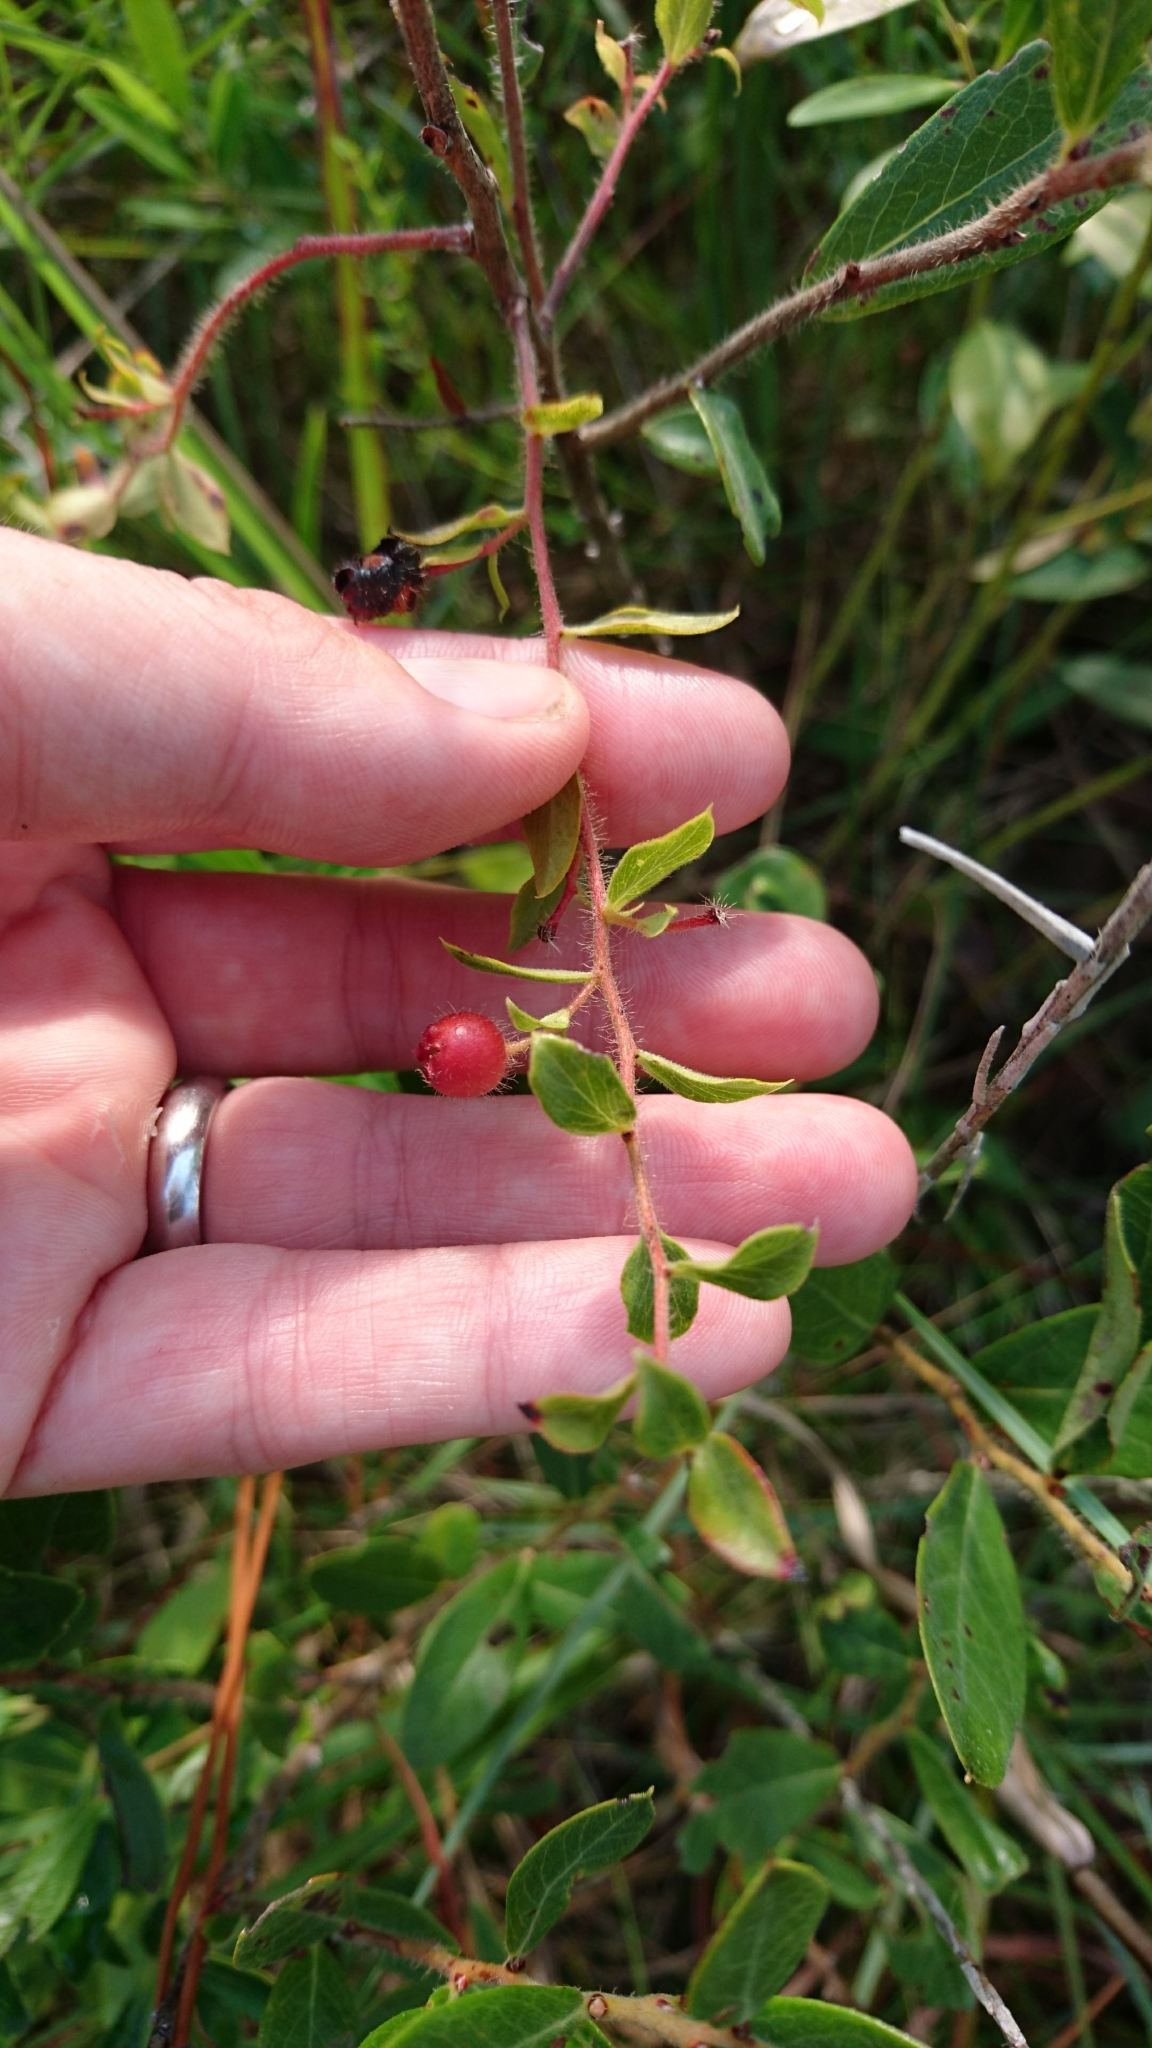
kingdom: Plantae
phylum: Tracheophyta
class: Magnoliopsida
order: Ericales
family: Ericaceae
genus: Gaylussacia
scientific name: Gaylussacia mosieri
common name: Hirsute huckleberry
